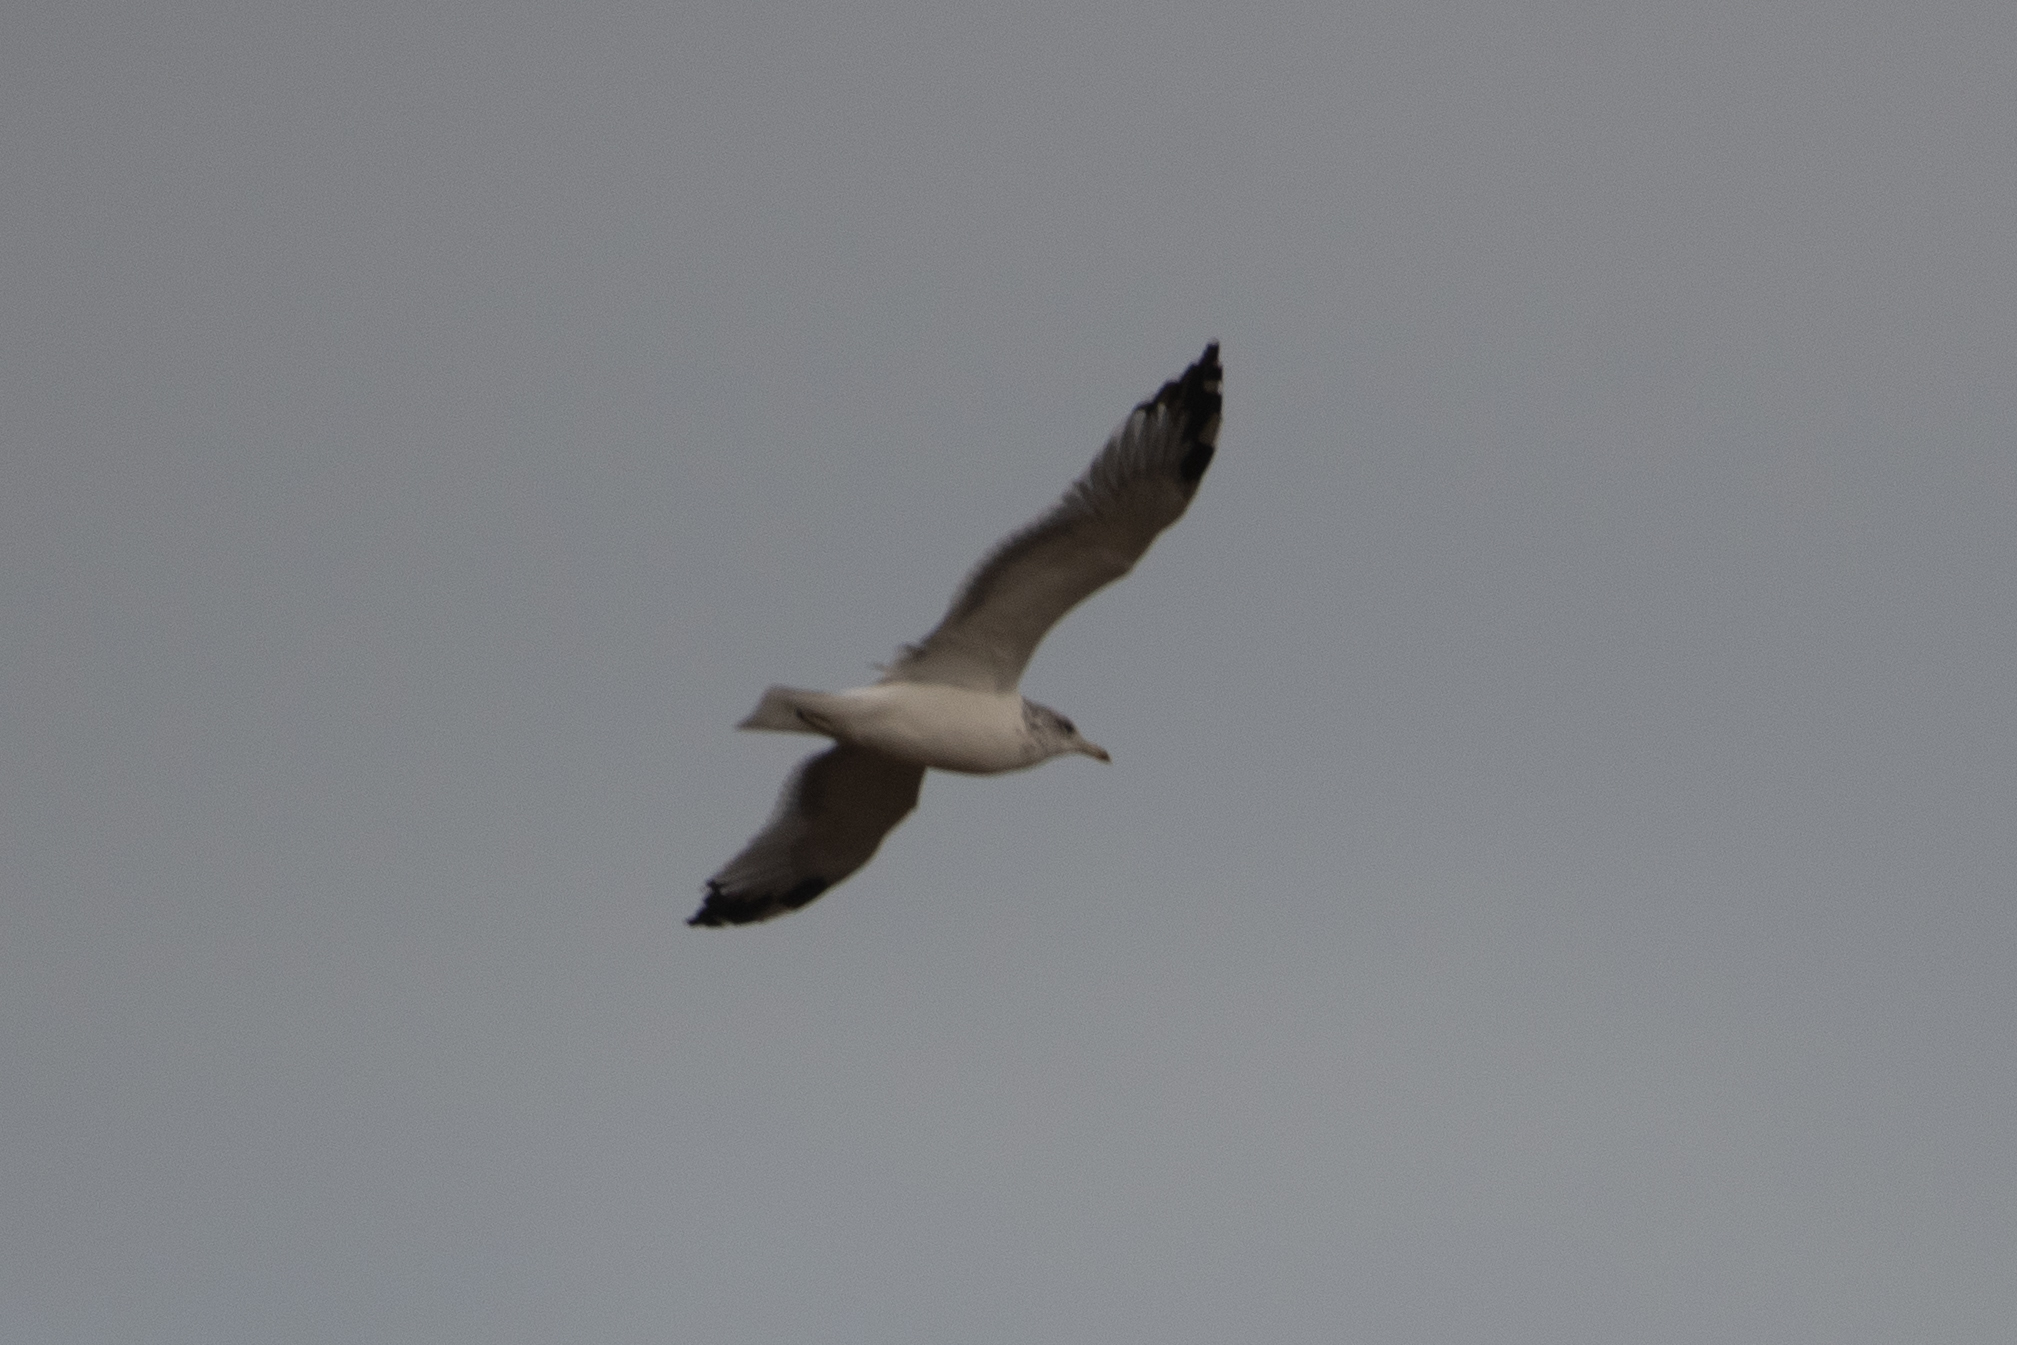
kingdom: Animalia
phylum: Chordata
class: Aves
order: Charadriiformes
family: Laridae
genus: Larus
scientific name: Larus californicus
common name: California gull
